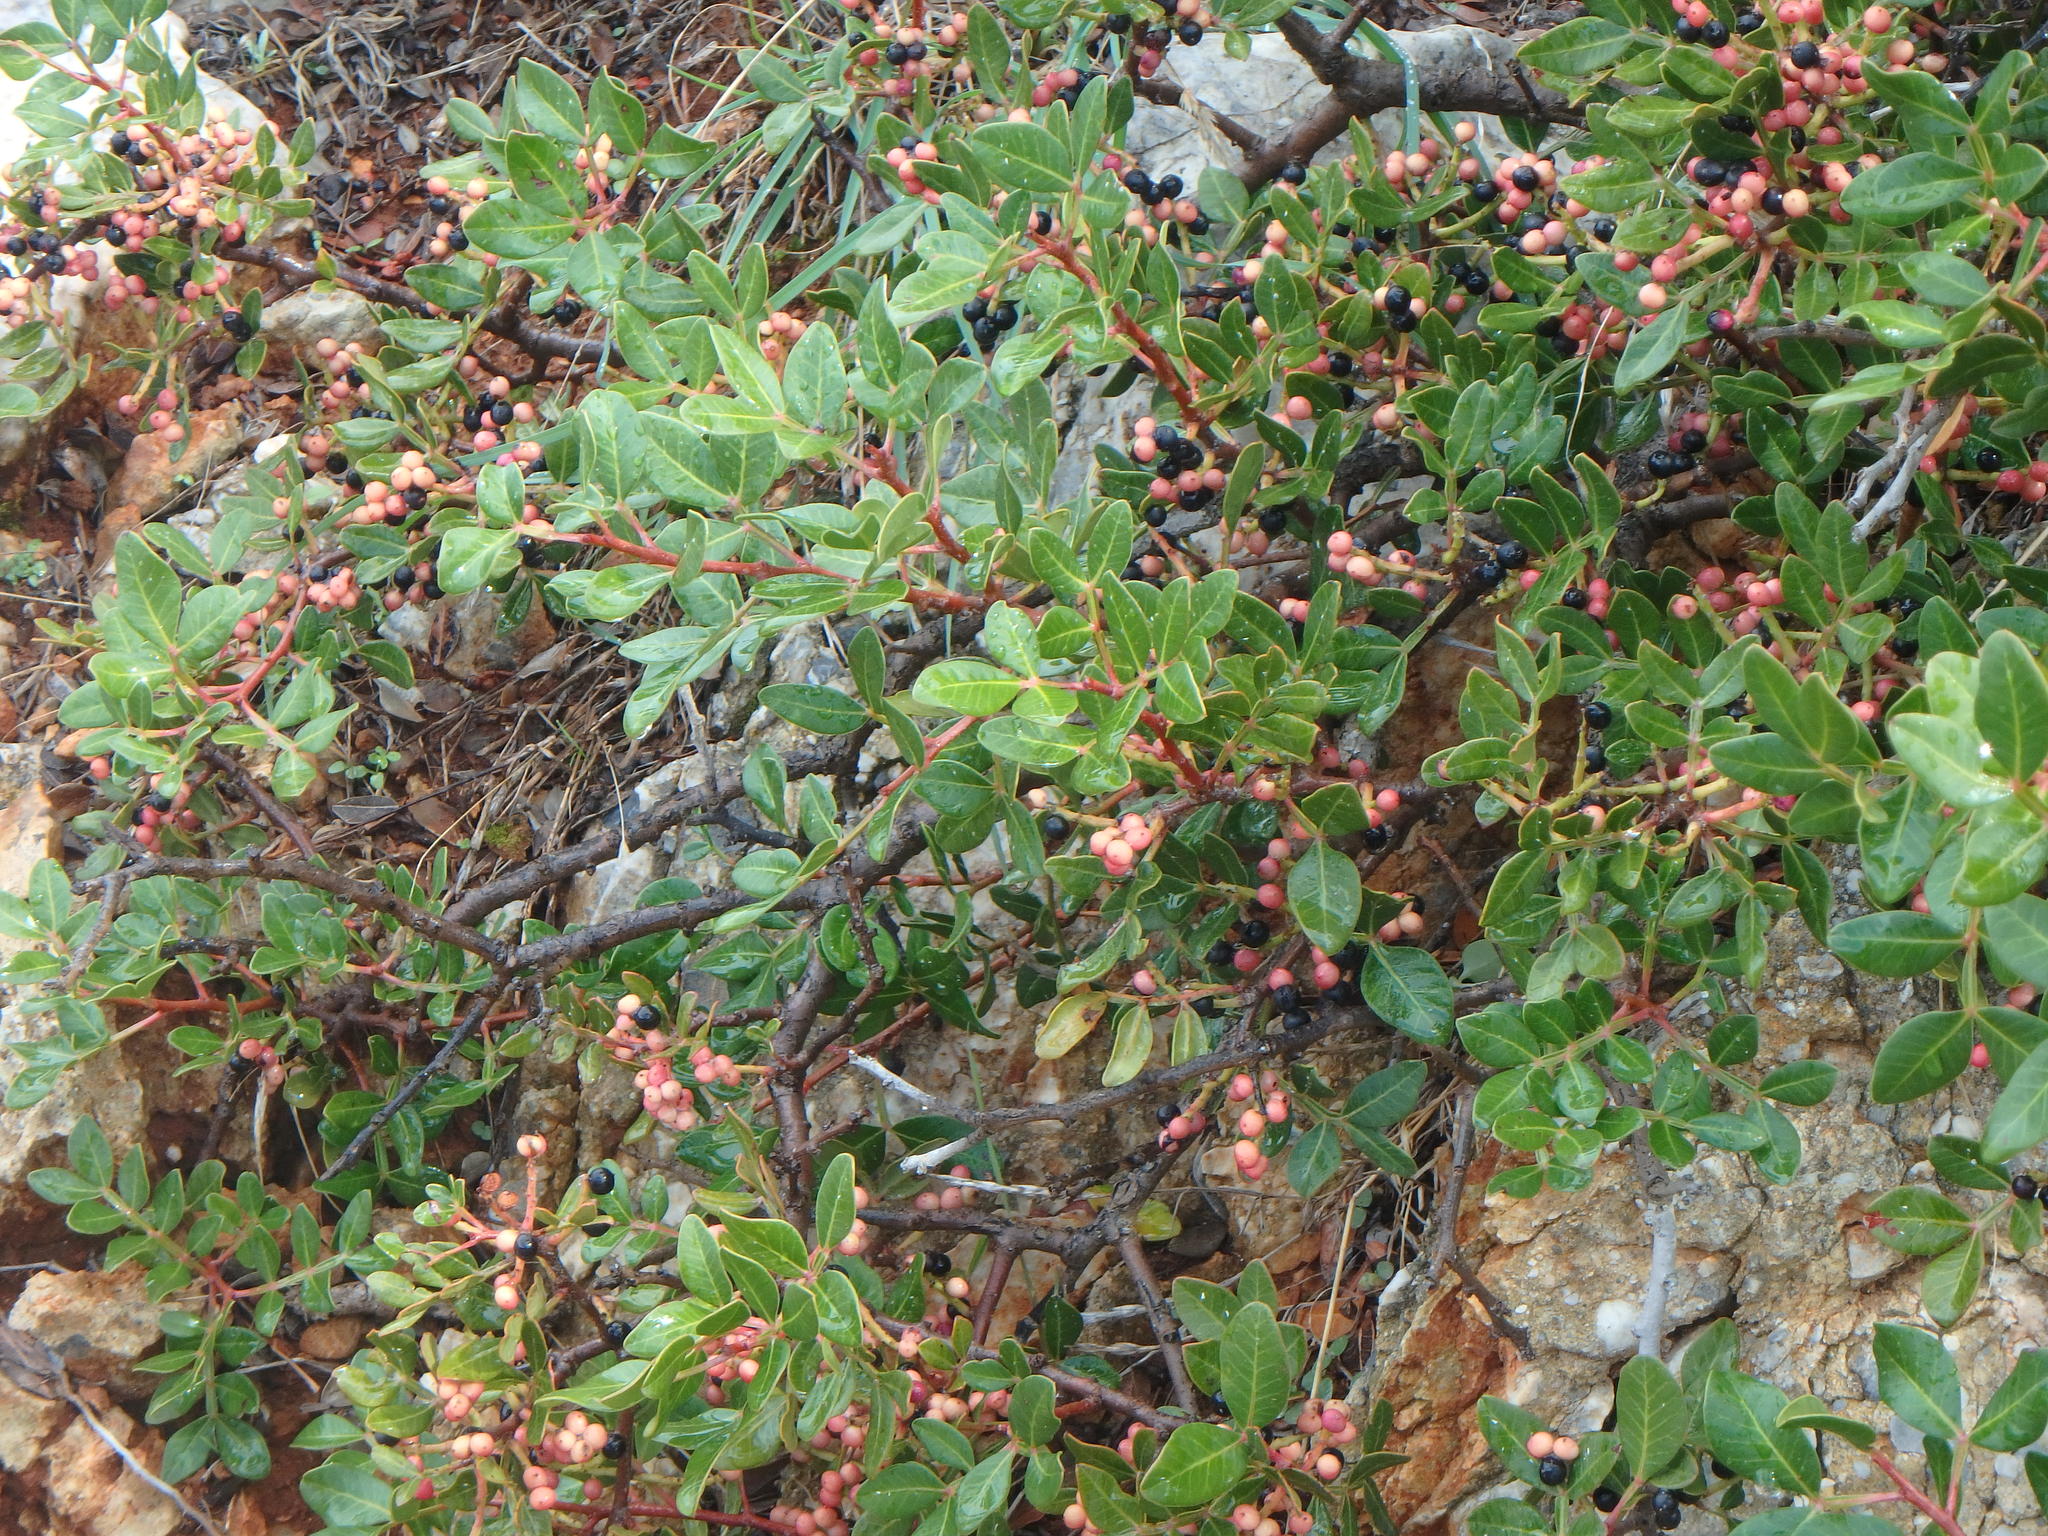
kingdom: Plantae
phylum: Tracheophyta
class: Magnoliopsida
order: Sapindales
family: Anacardiaceae
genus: Pistacia
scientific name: Pistacia lentiscus
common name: Lentisk
